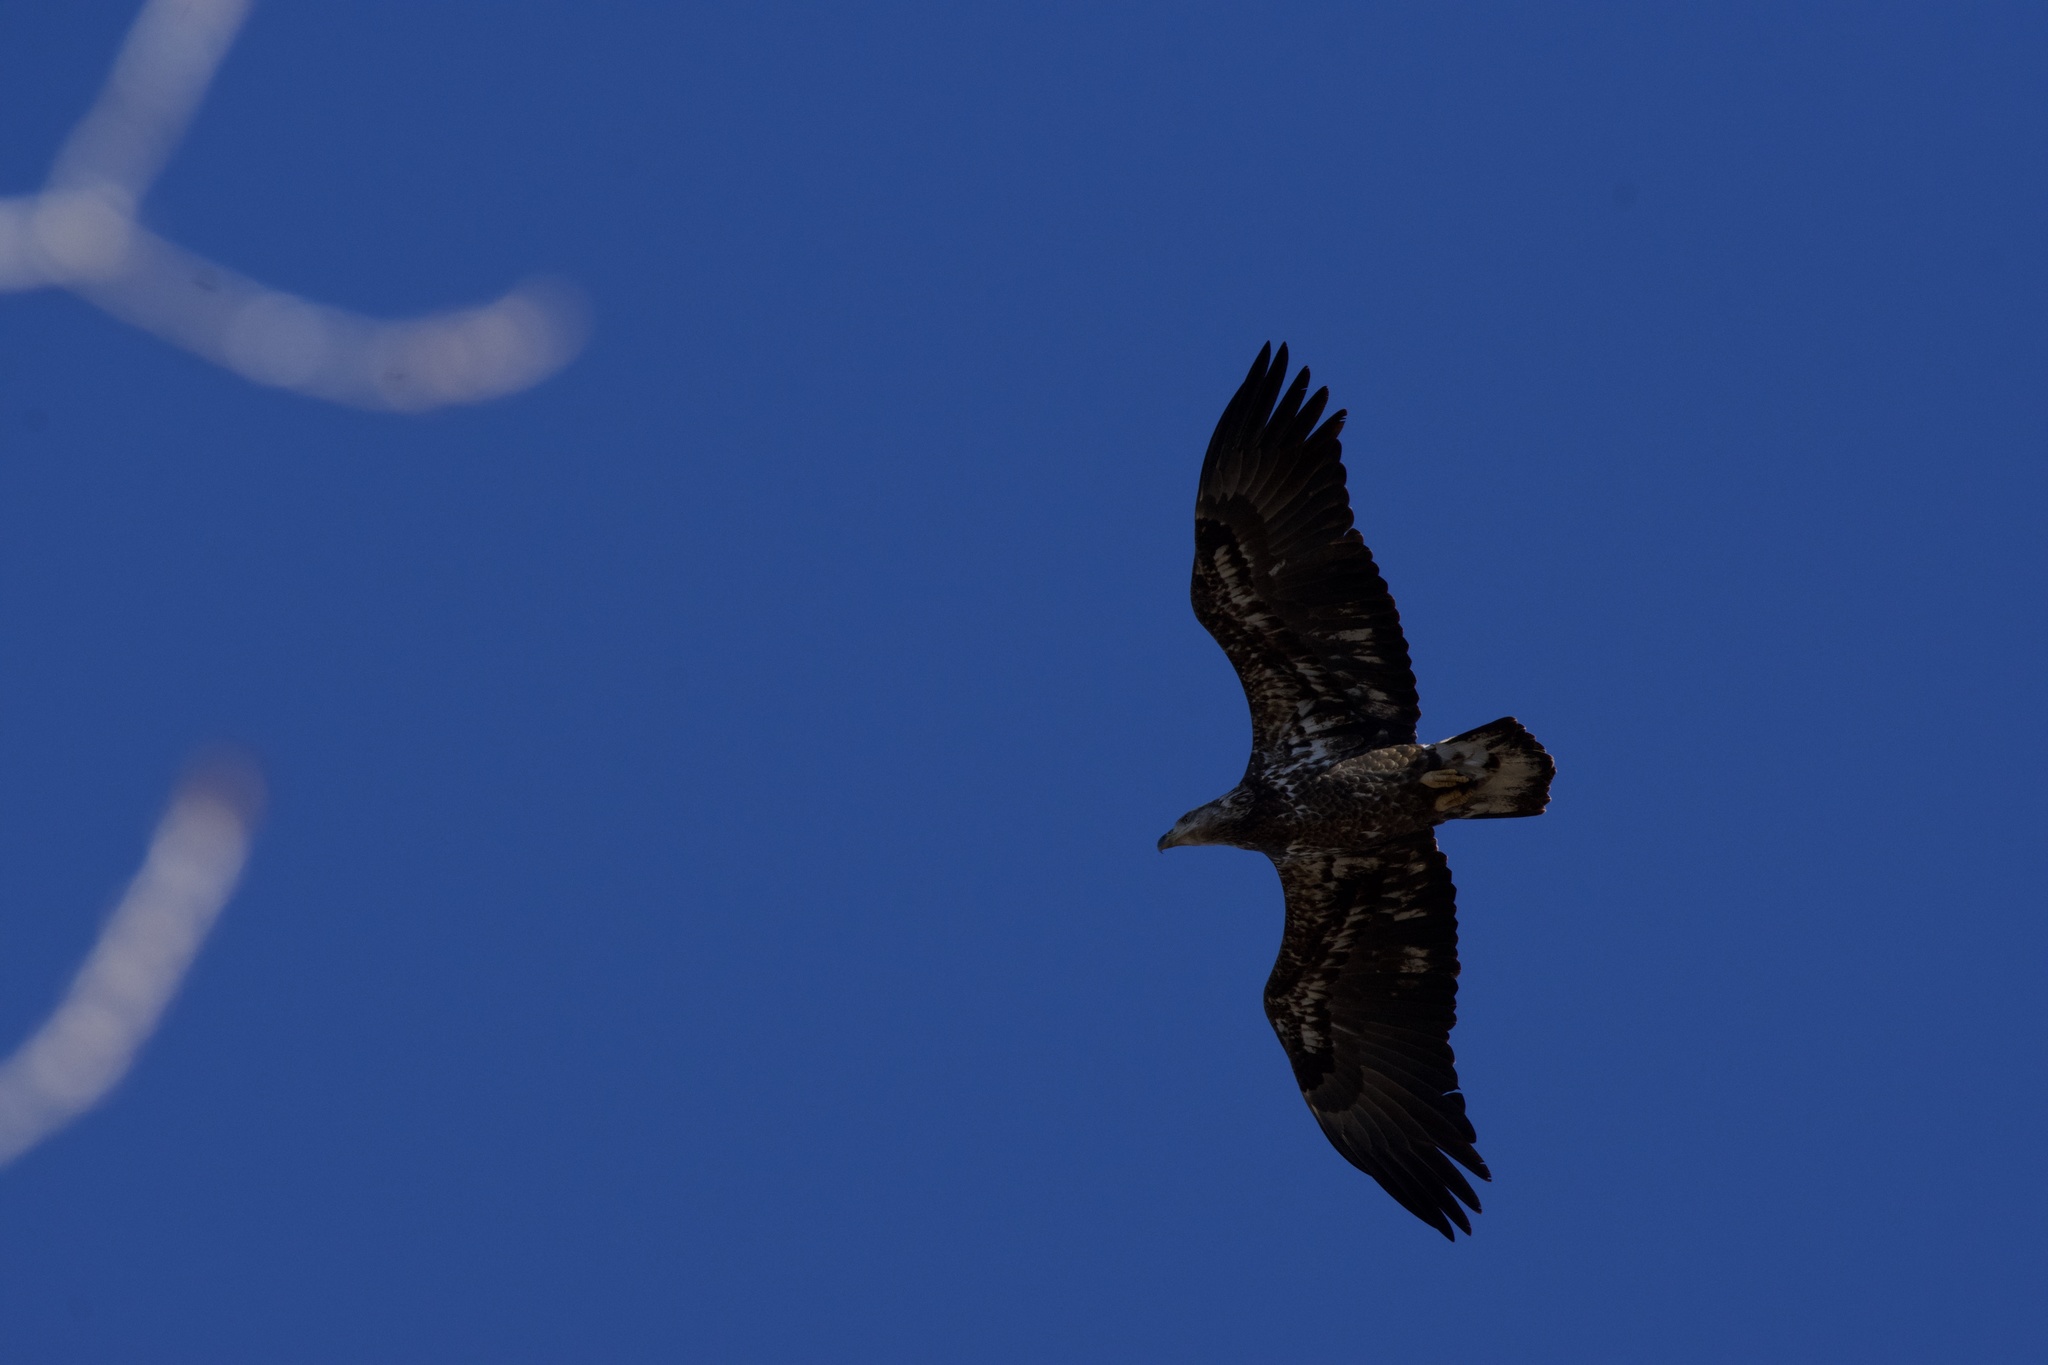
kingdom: Animalia
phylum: Chordata
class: Aves
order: Accipitriformes
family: Accipitridae
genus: Haliaeetus
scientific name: Haliaeetus leucocephalus
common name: Bald eagle
